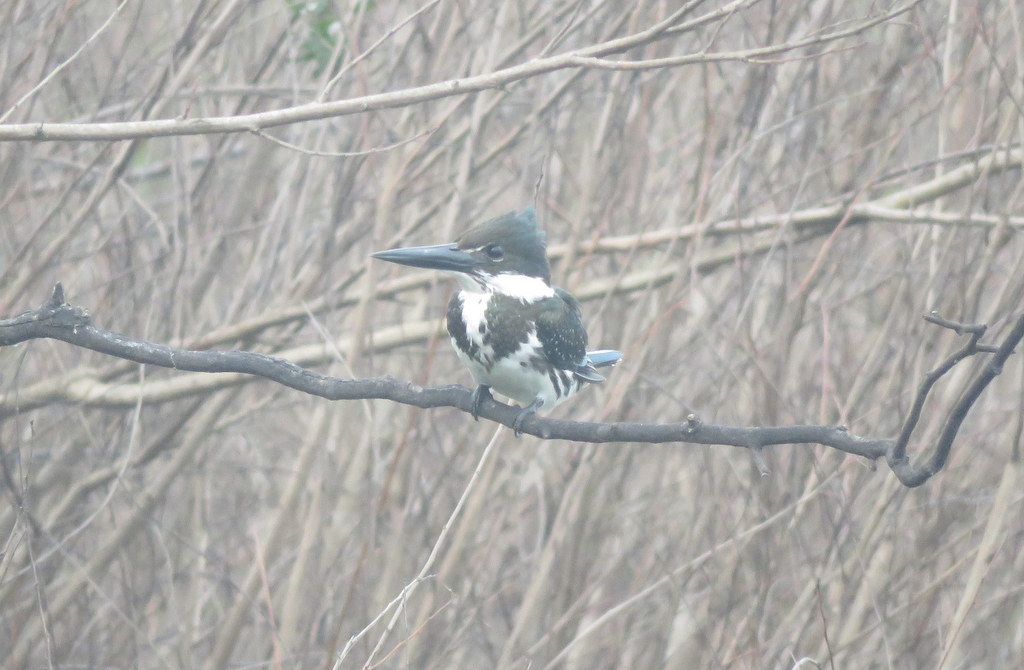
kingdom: Animalia
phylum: Chordata
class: Aves
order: Coraciiformes
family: Alcedinidae
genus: Chloroceryle
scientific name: Chloroceryle amazona
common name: Amazon kingfisher
